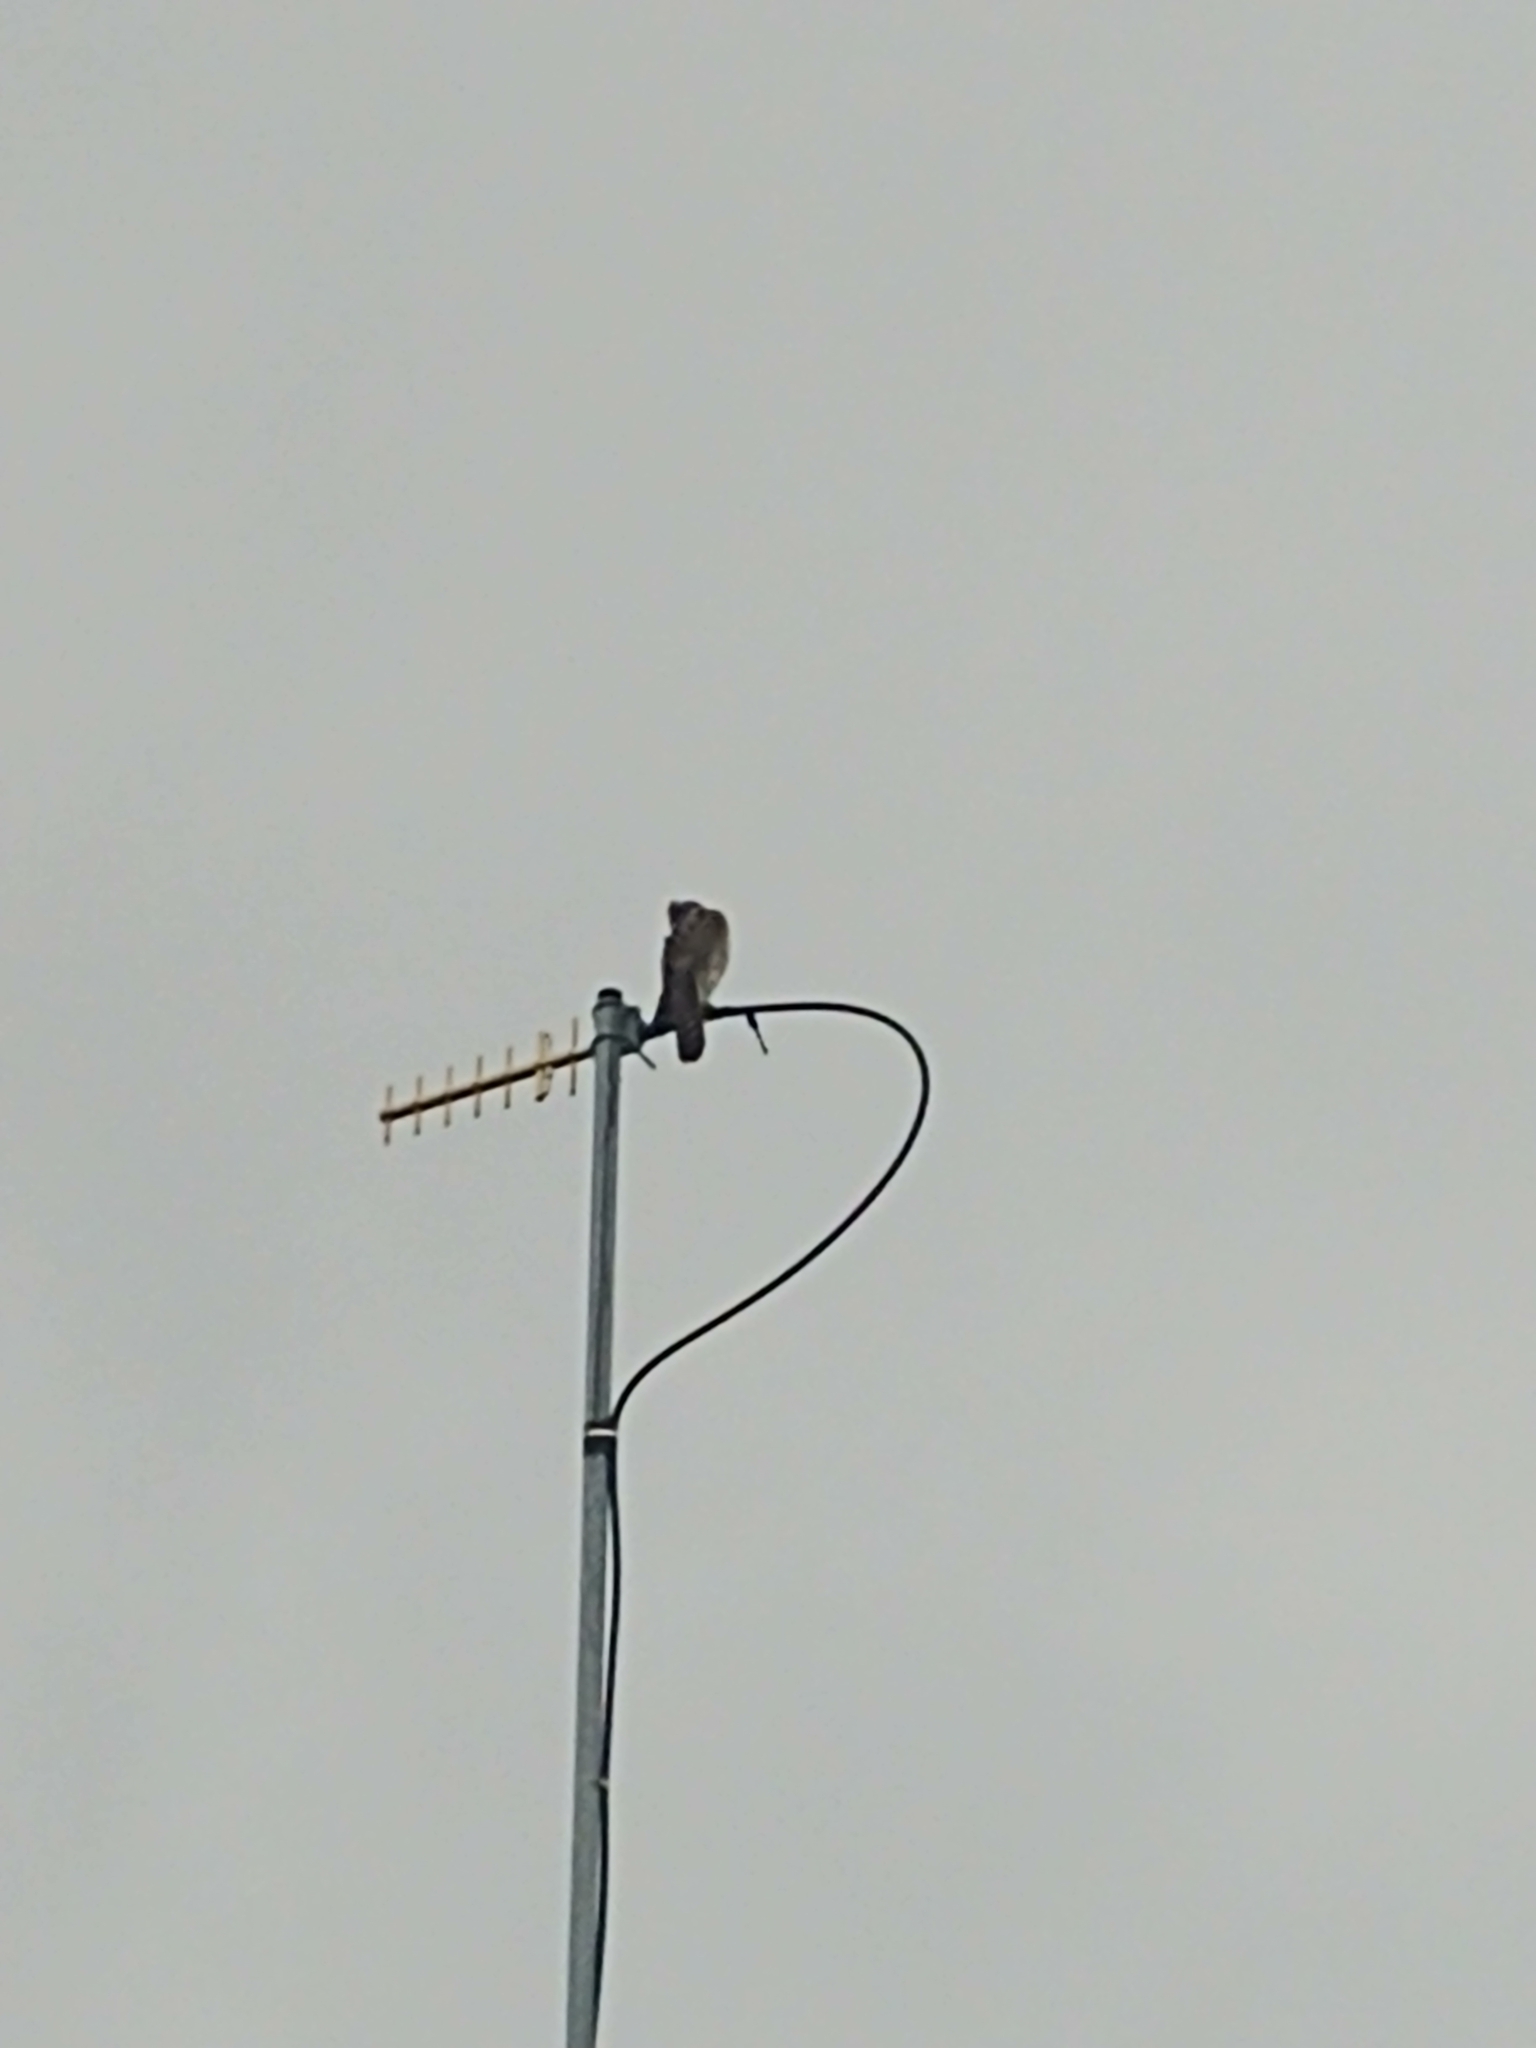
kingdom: Animalia
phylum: Chordata
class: Aves
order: Accipitriformes
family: Accipitridae
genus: Buteo
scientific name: Buteo jamaicensis
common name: Red-tailed hawk
